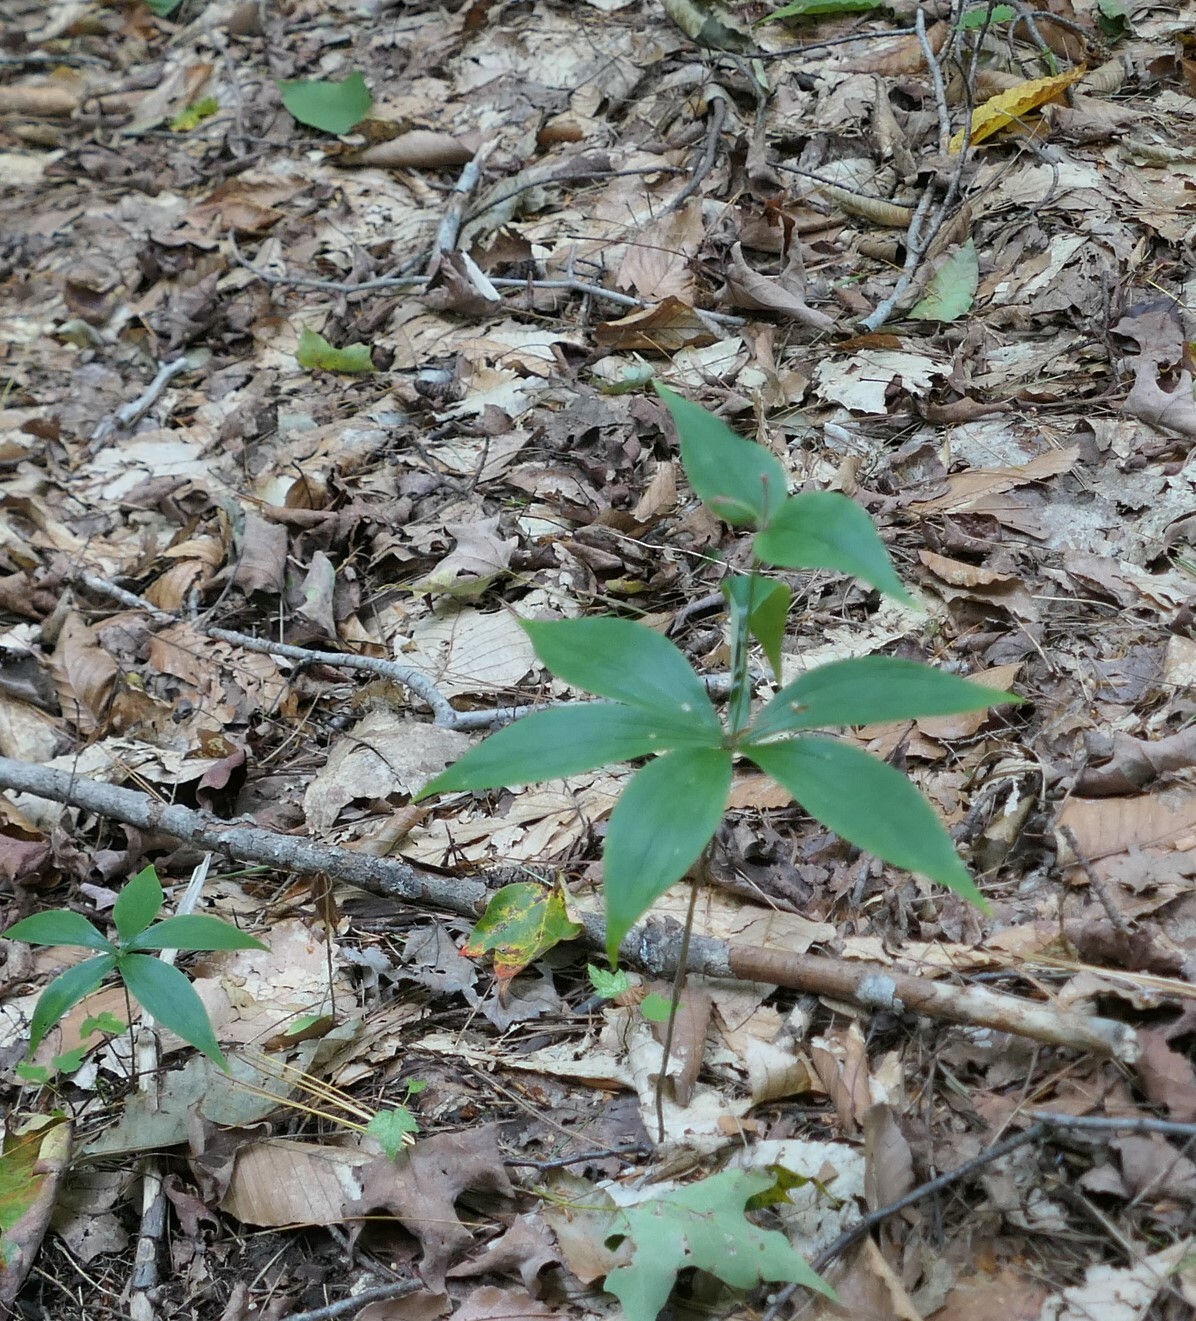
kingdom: Plantae
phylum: Tracheophyta
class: Liliopsida
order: Liliales
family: Liliaceae
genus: Medeola
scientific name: Medeola virginiana
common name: Indian cucumber-root
